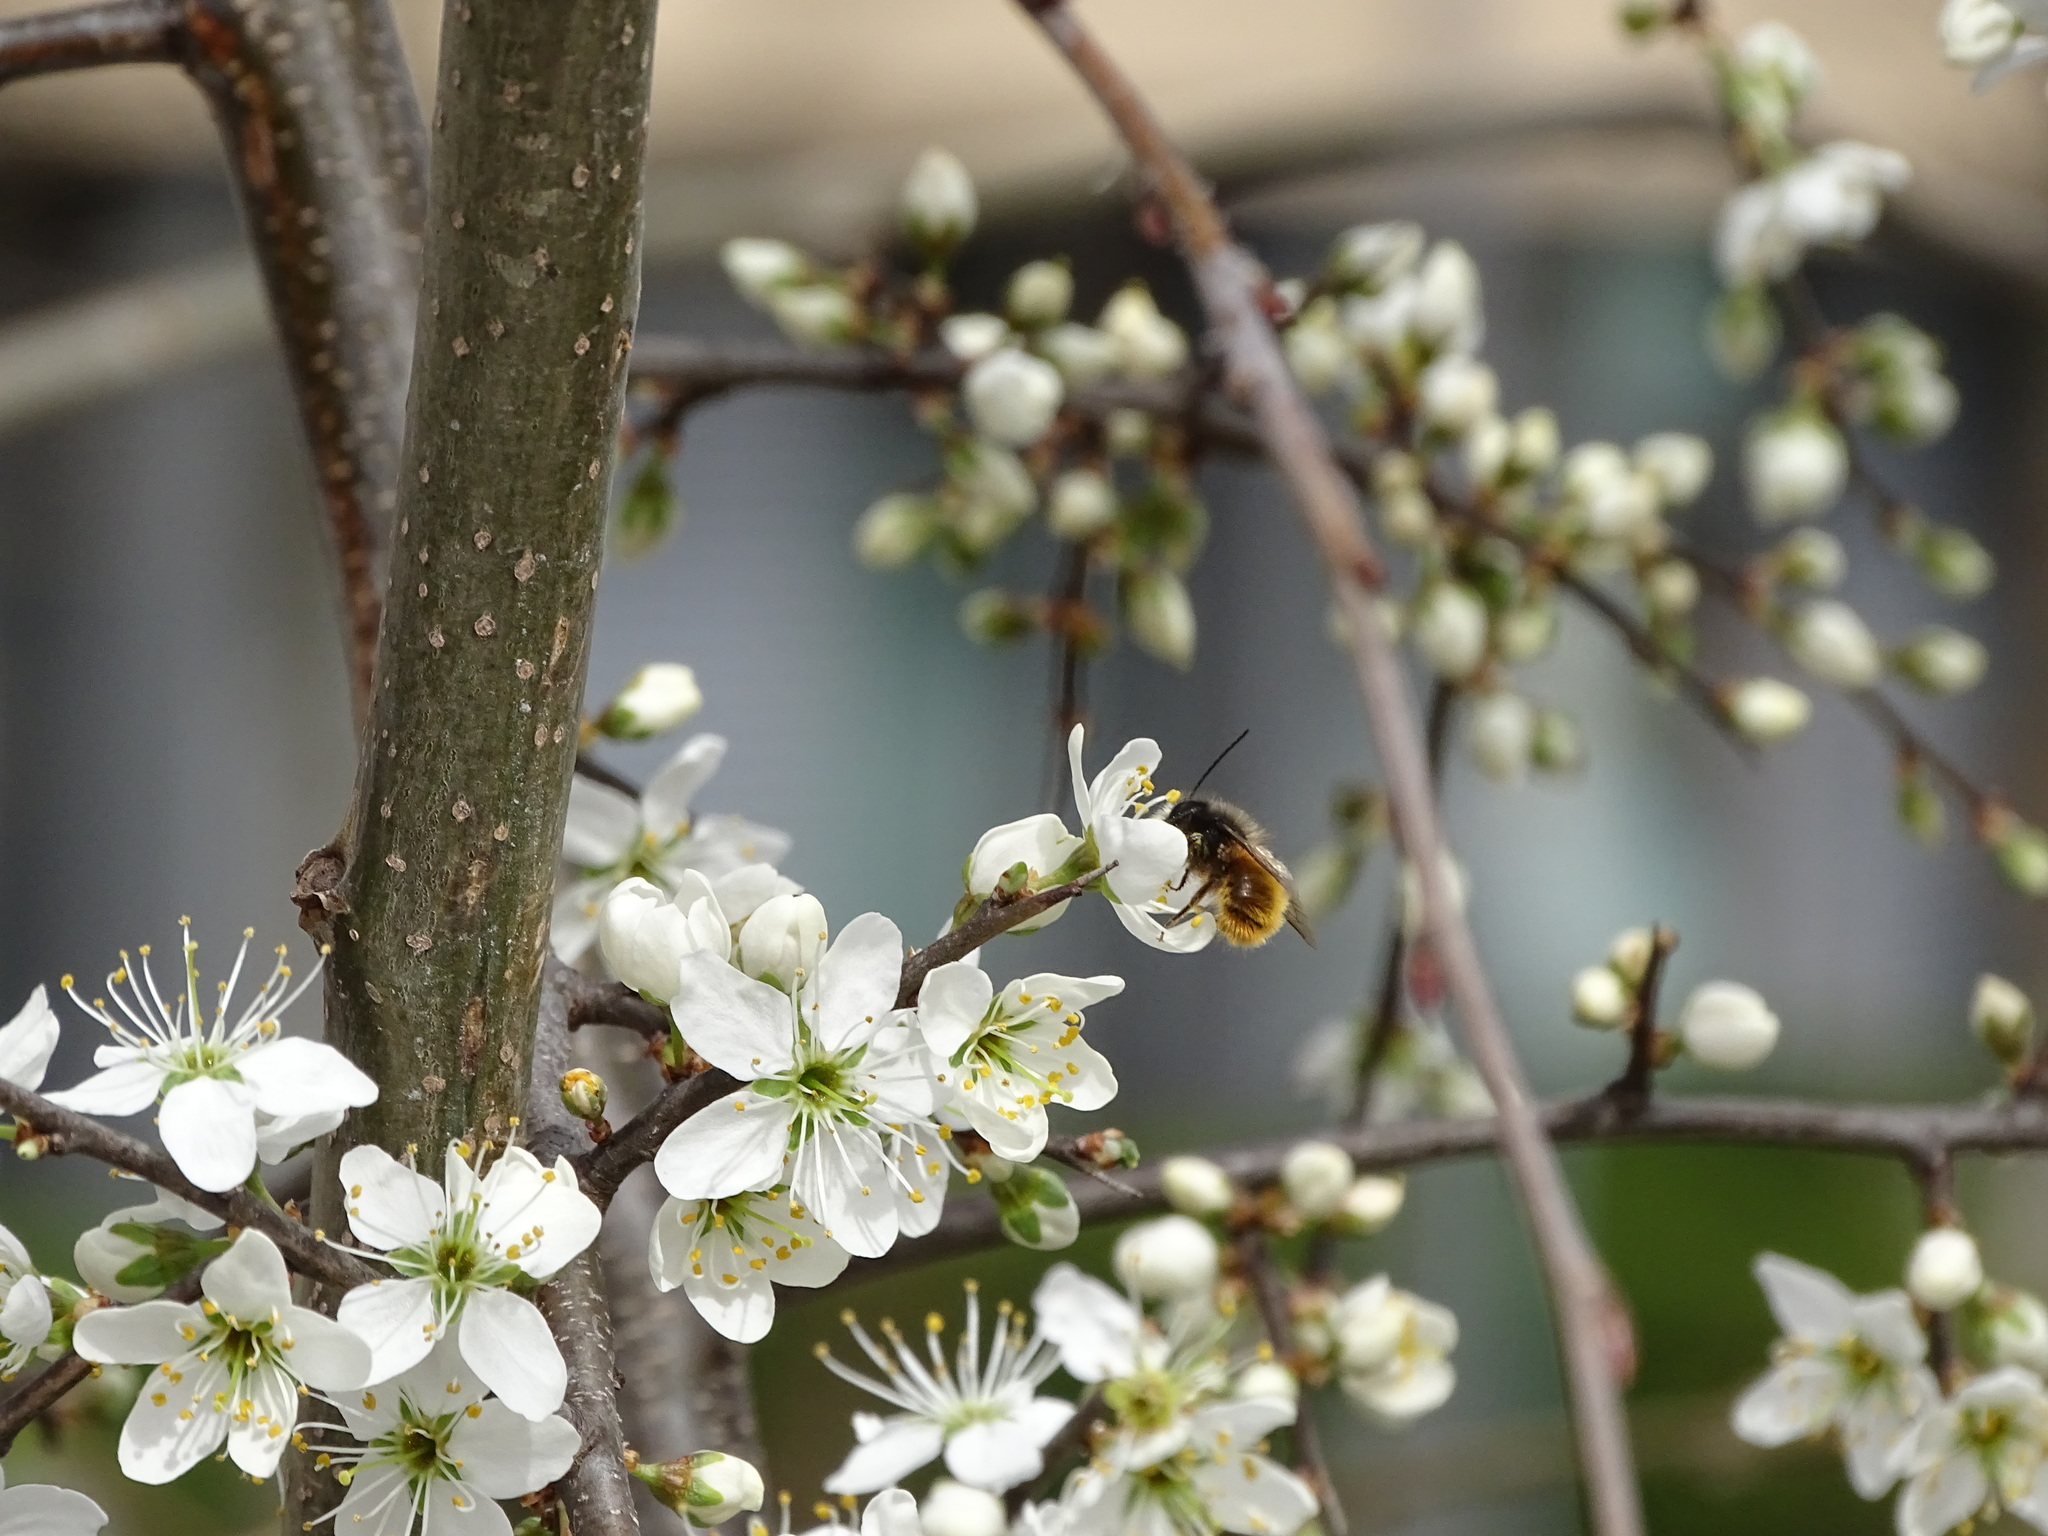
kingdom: Animalia
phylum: Arthropoda
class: Insecta
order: Hymenoptera
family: Megachilidae
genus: Osmia
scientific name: Osmia bicornis
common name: Red mason bee
